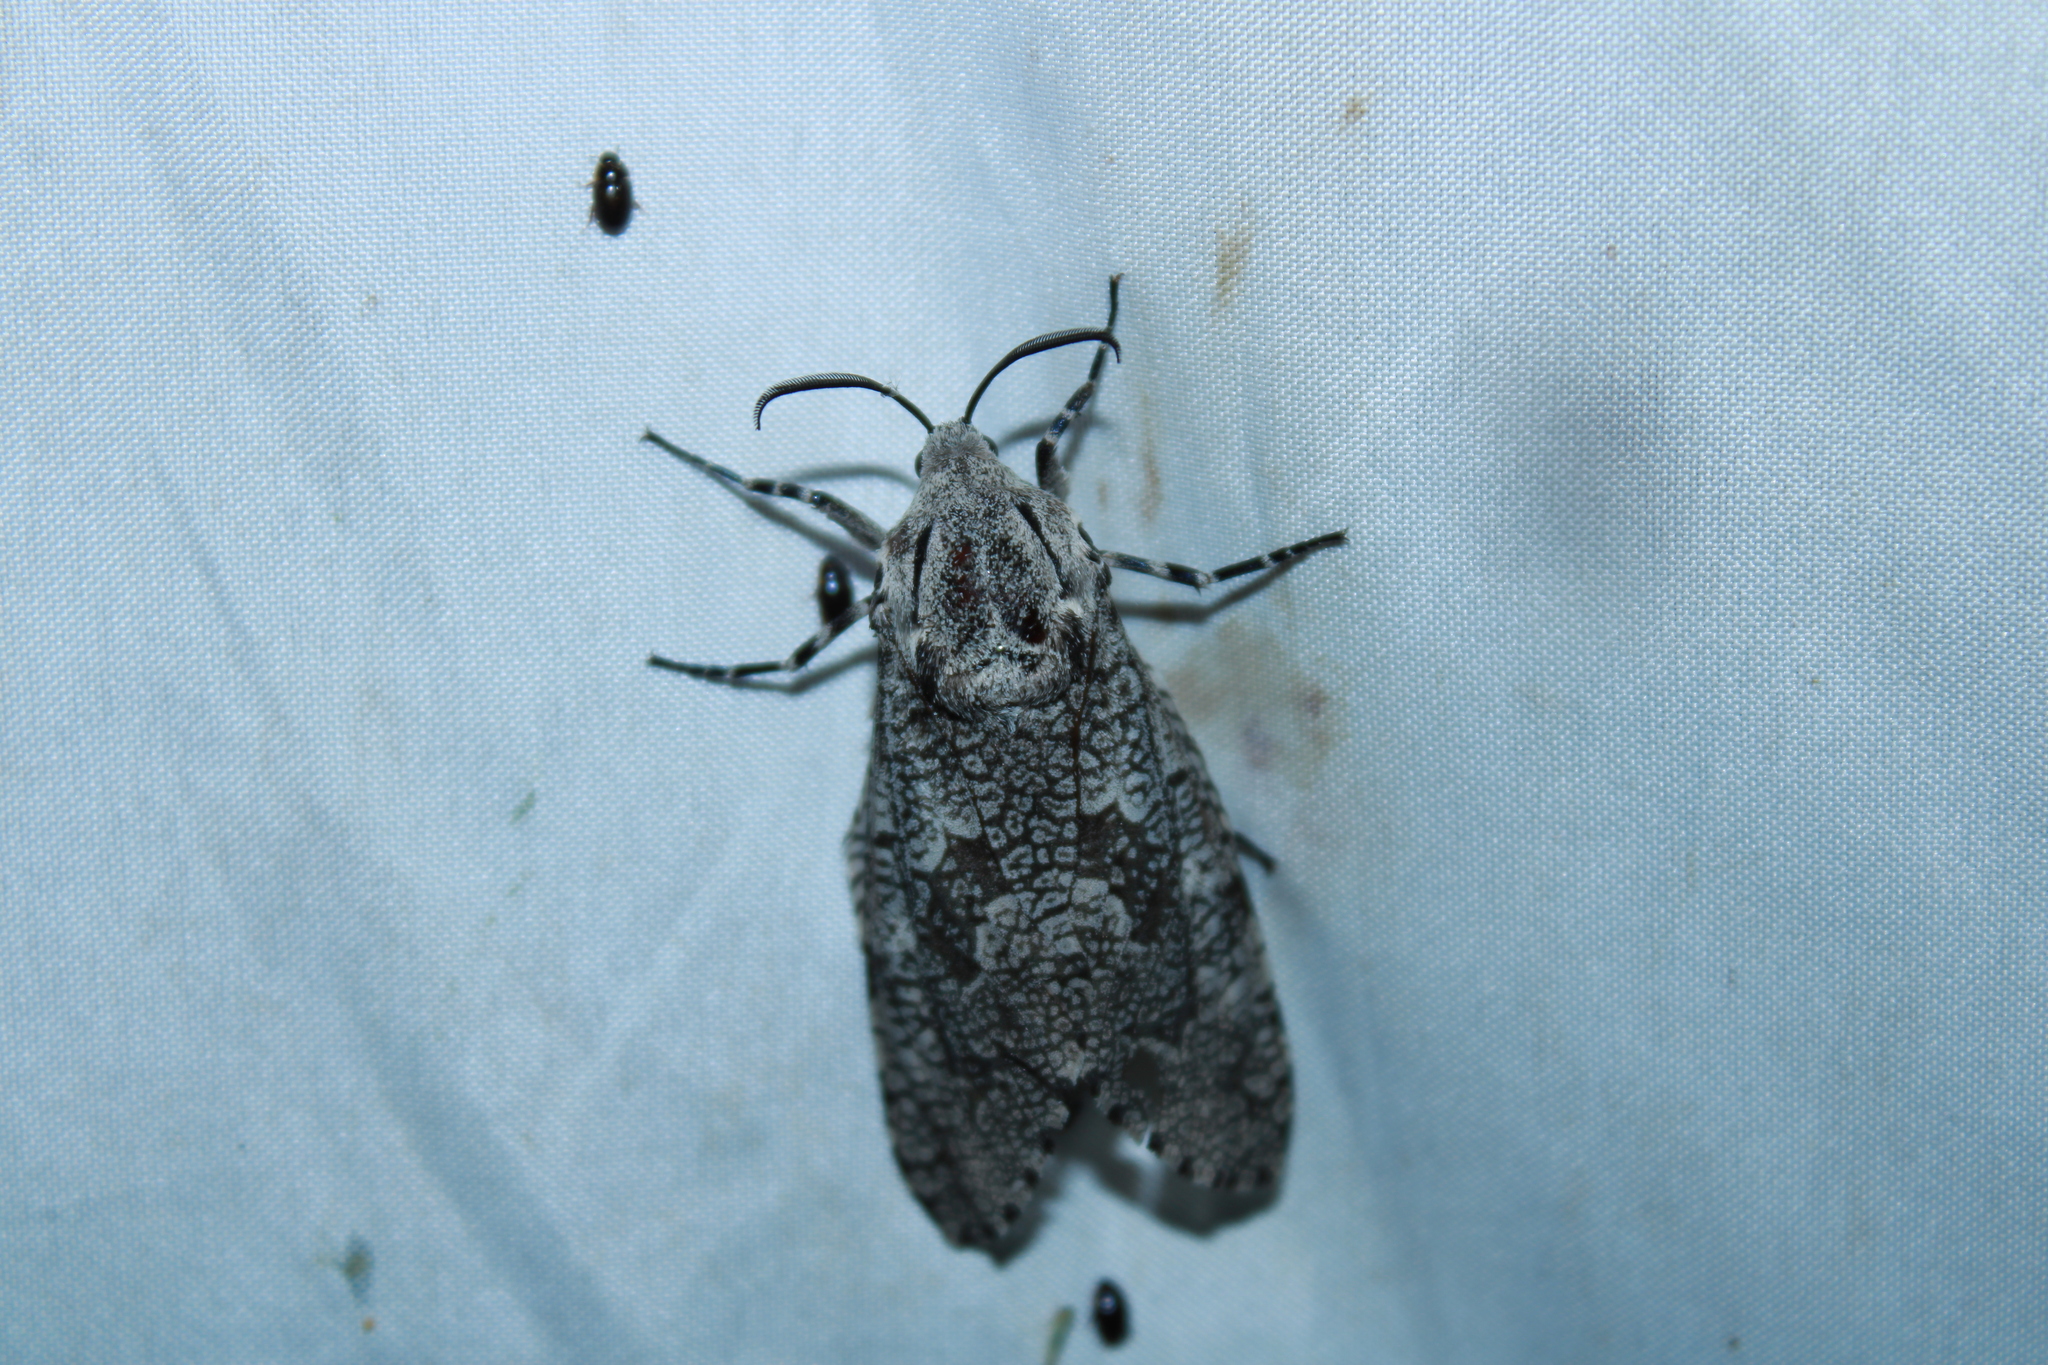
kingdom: Animalia
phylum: Arthropoda
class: Insecta
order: Lepidoptera
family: Cossidae
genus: Prionoxystus
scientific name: Prionoxystus robiniae
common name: Carpenterworm
